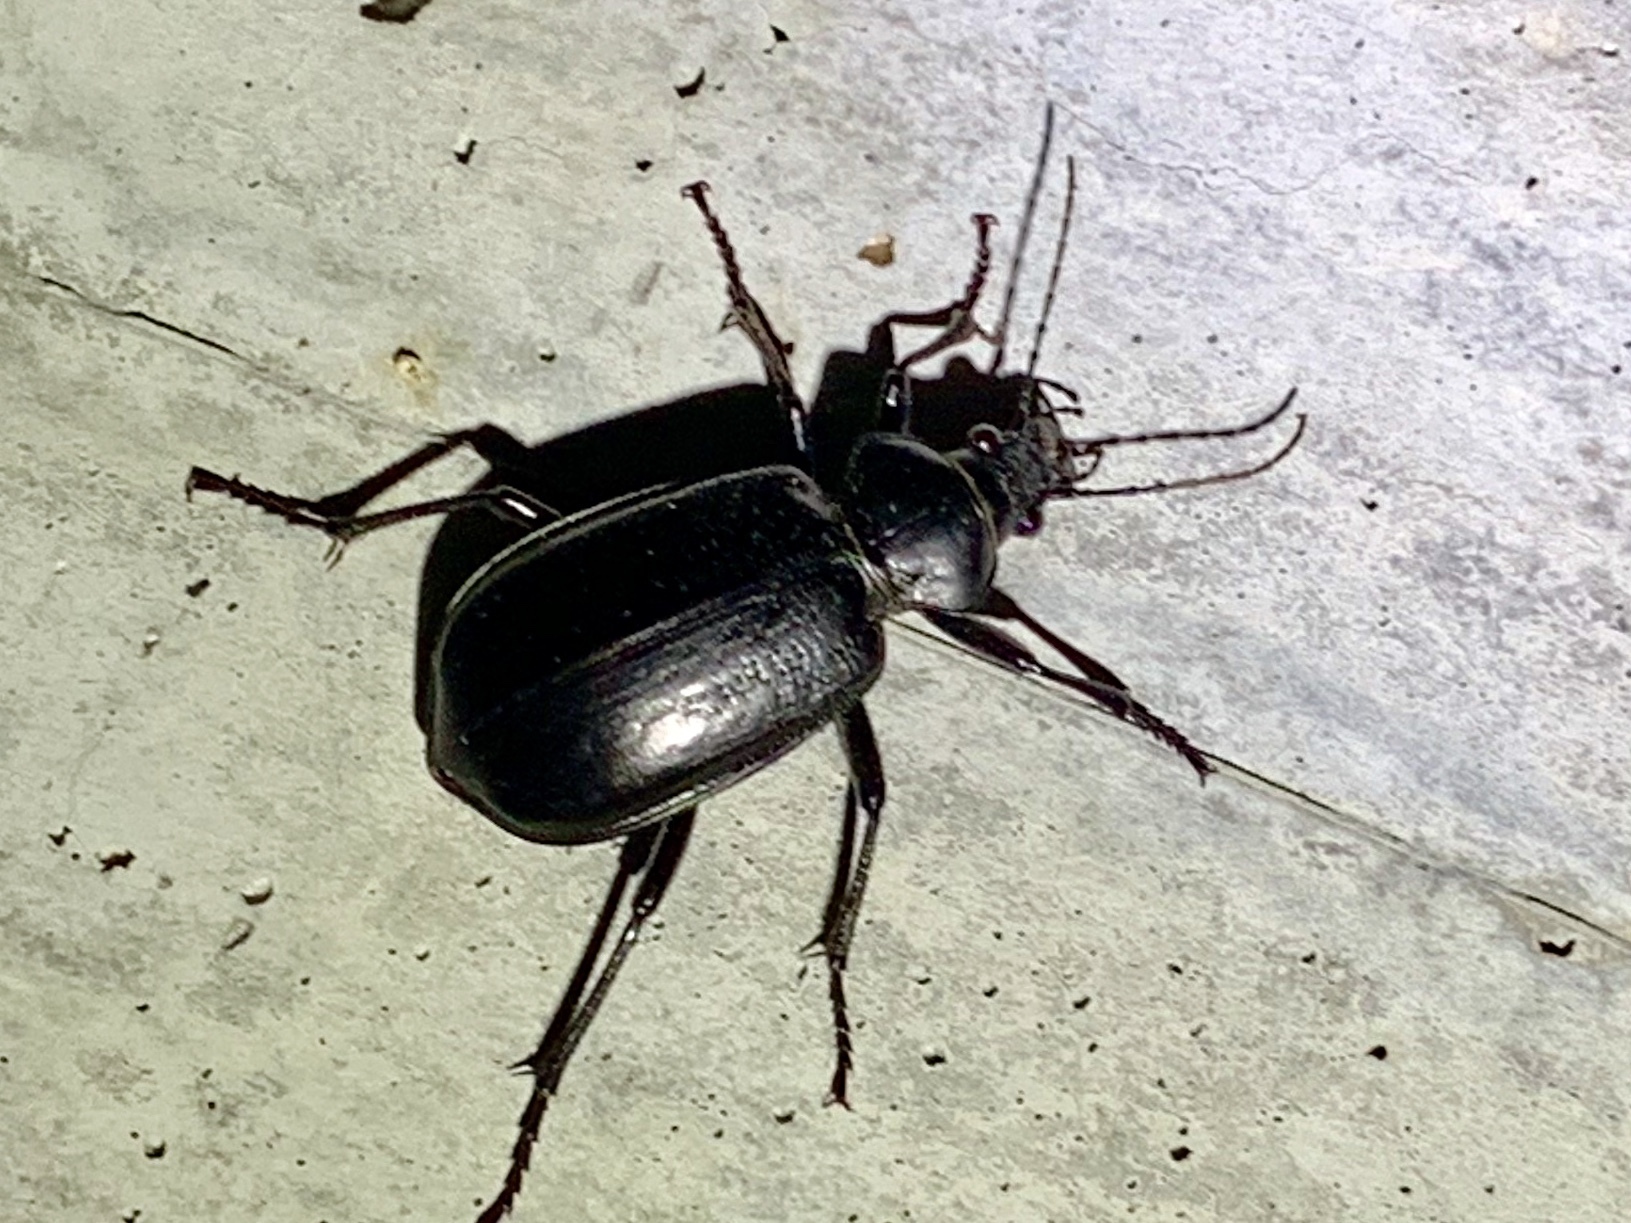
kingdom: Animalia
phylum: Arthropoda
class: Insecta
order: Coleoptera
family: Carabidae
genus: Calosoma
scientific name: Calosoma marginale
